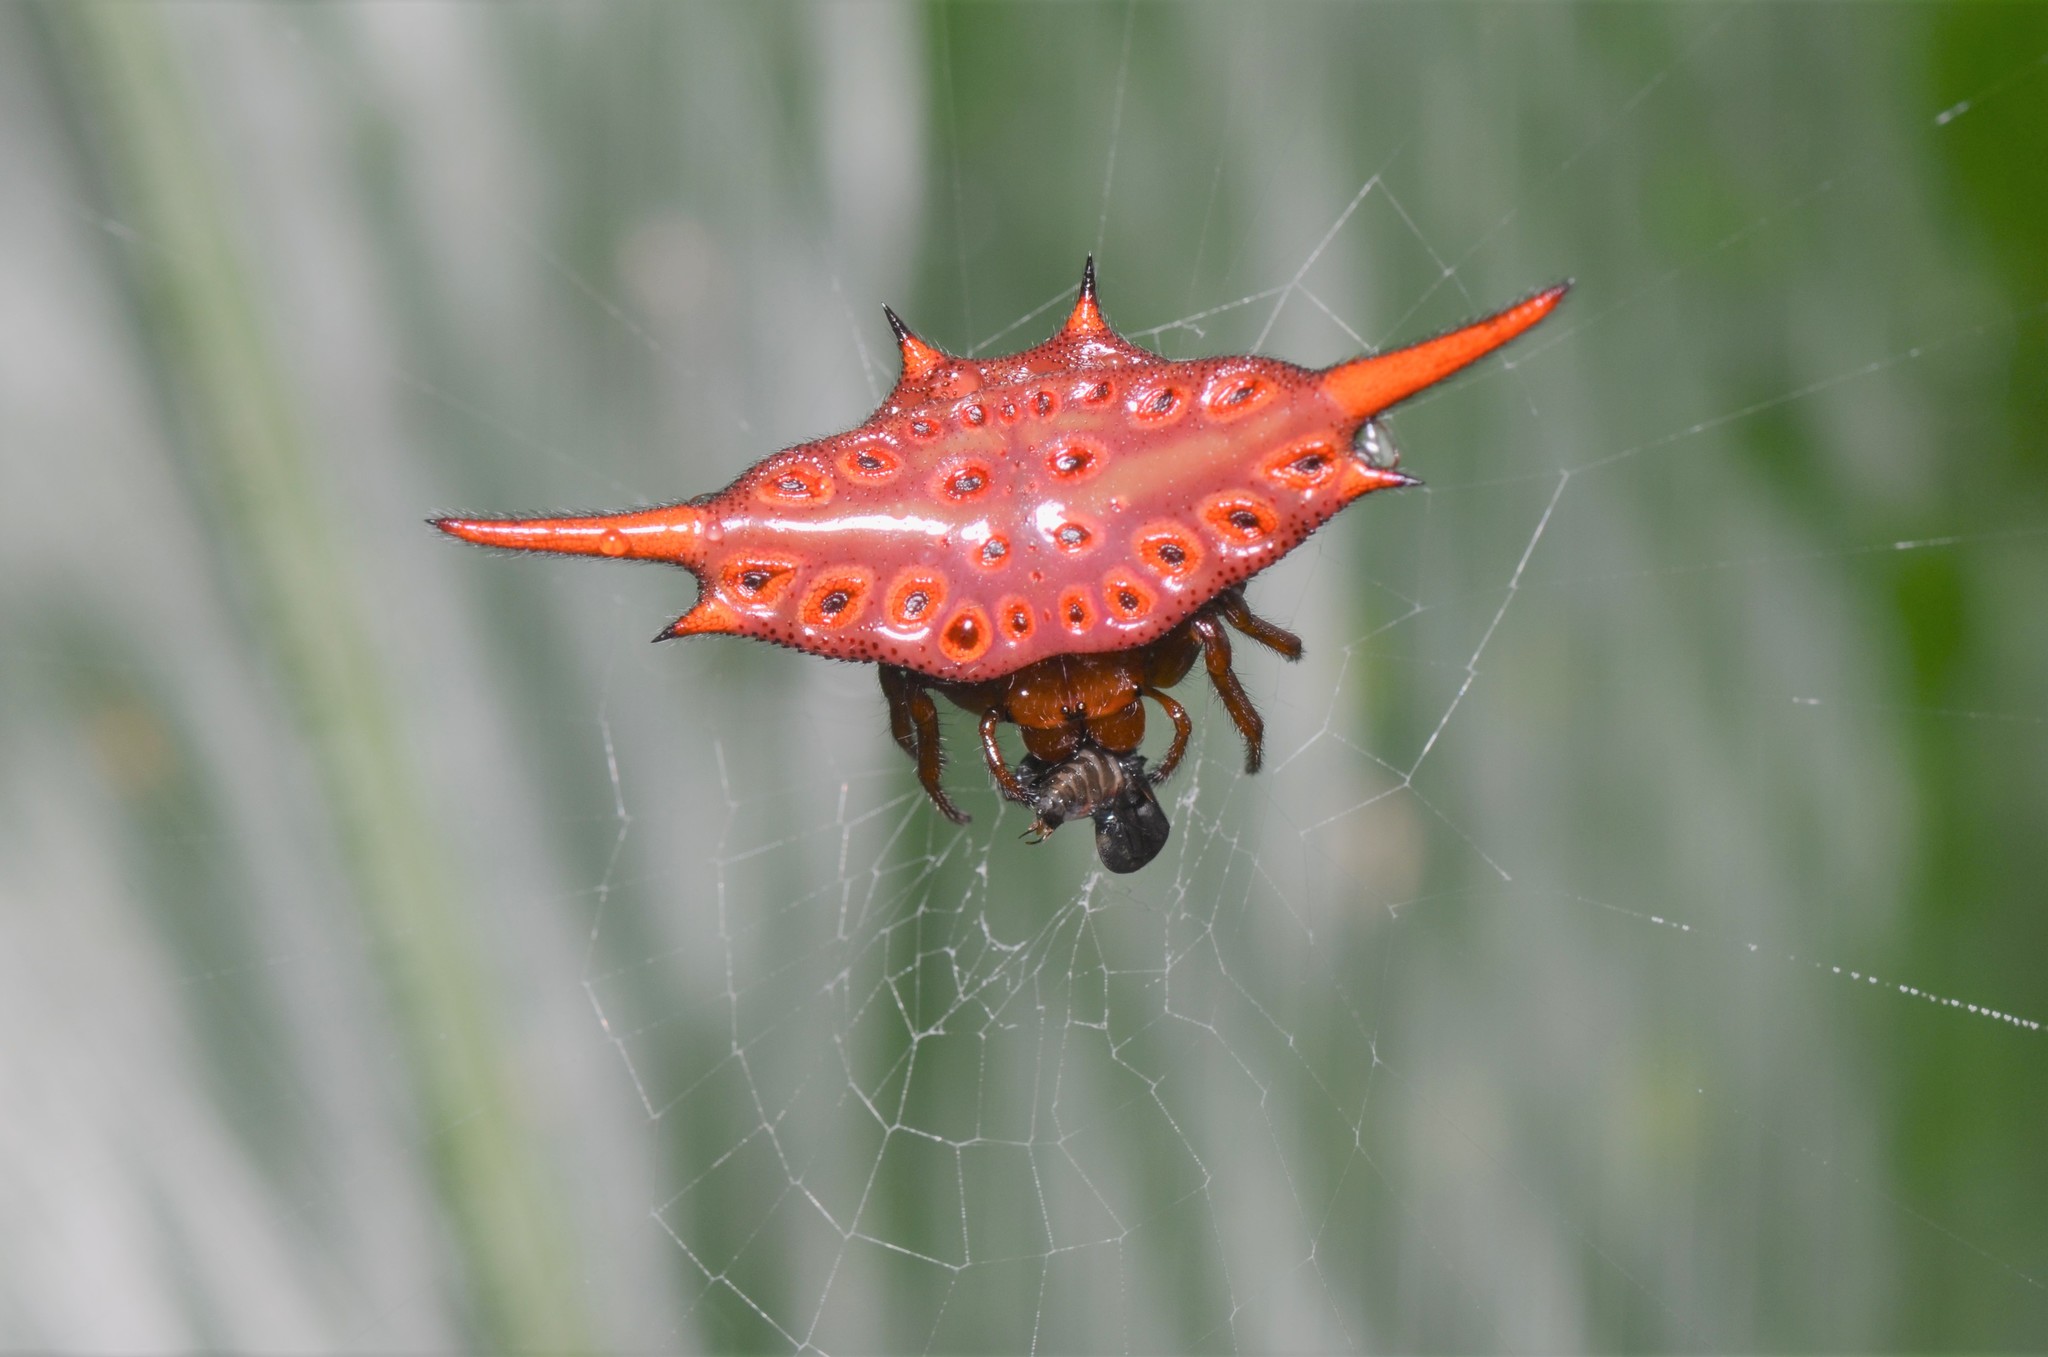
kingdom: Animalia
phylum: Arthropoda
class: Arachnida
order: Araneae
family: Araneidae
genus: Gasteracantha
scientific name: Gasteracantha versicolor
